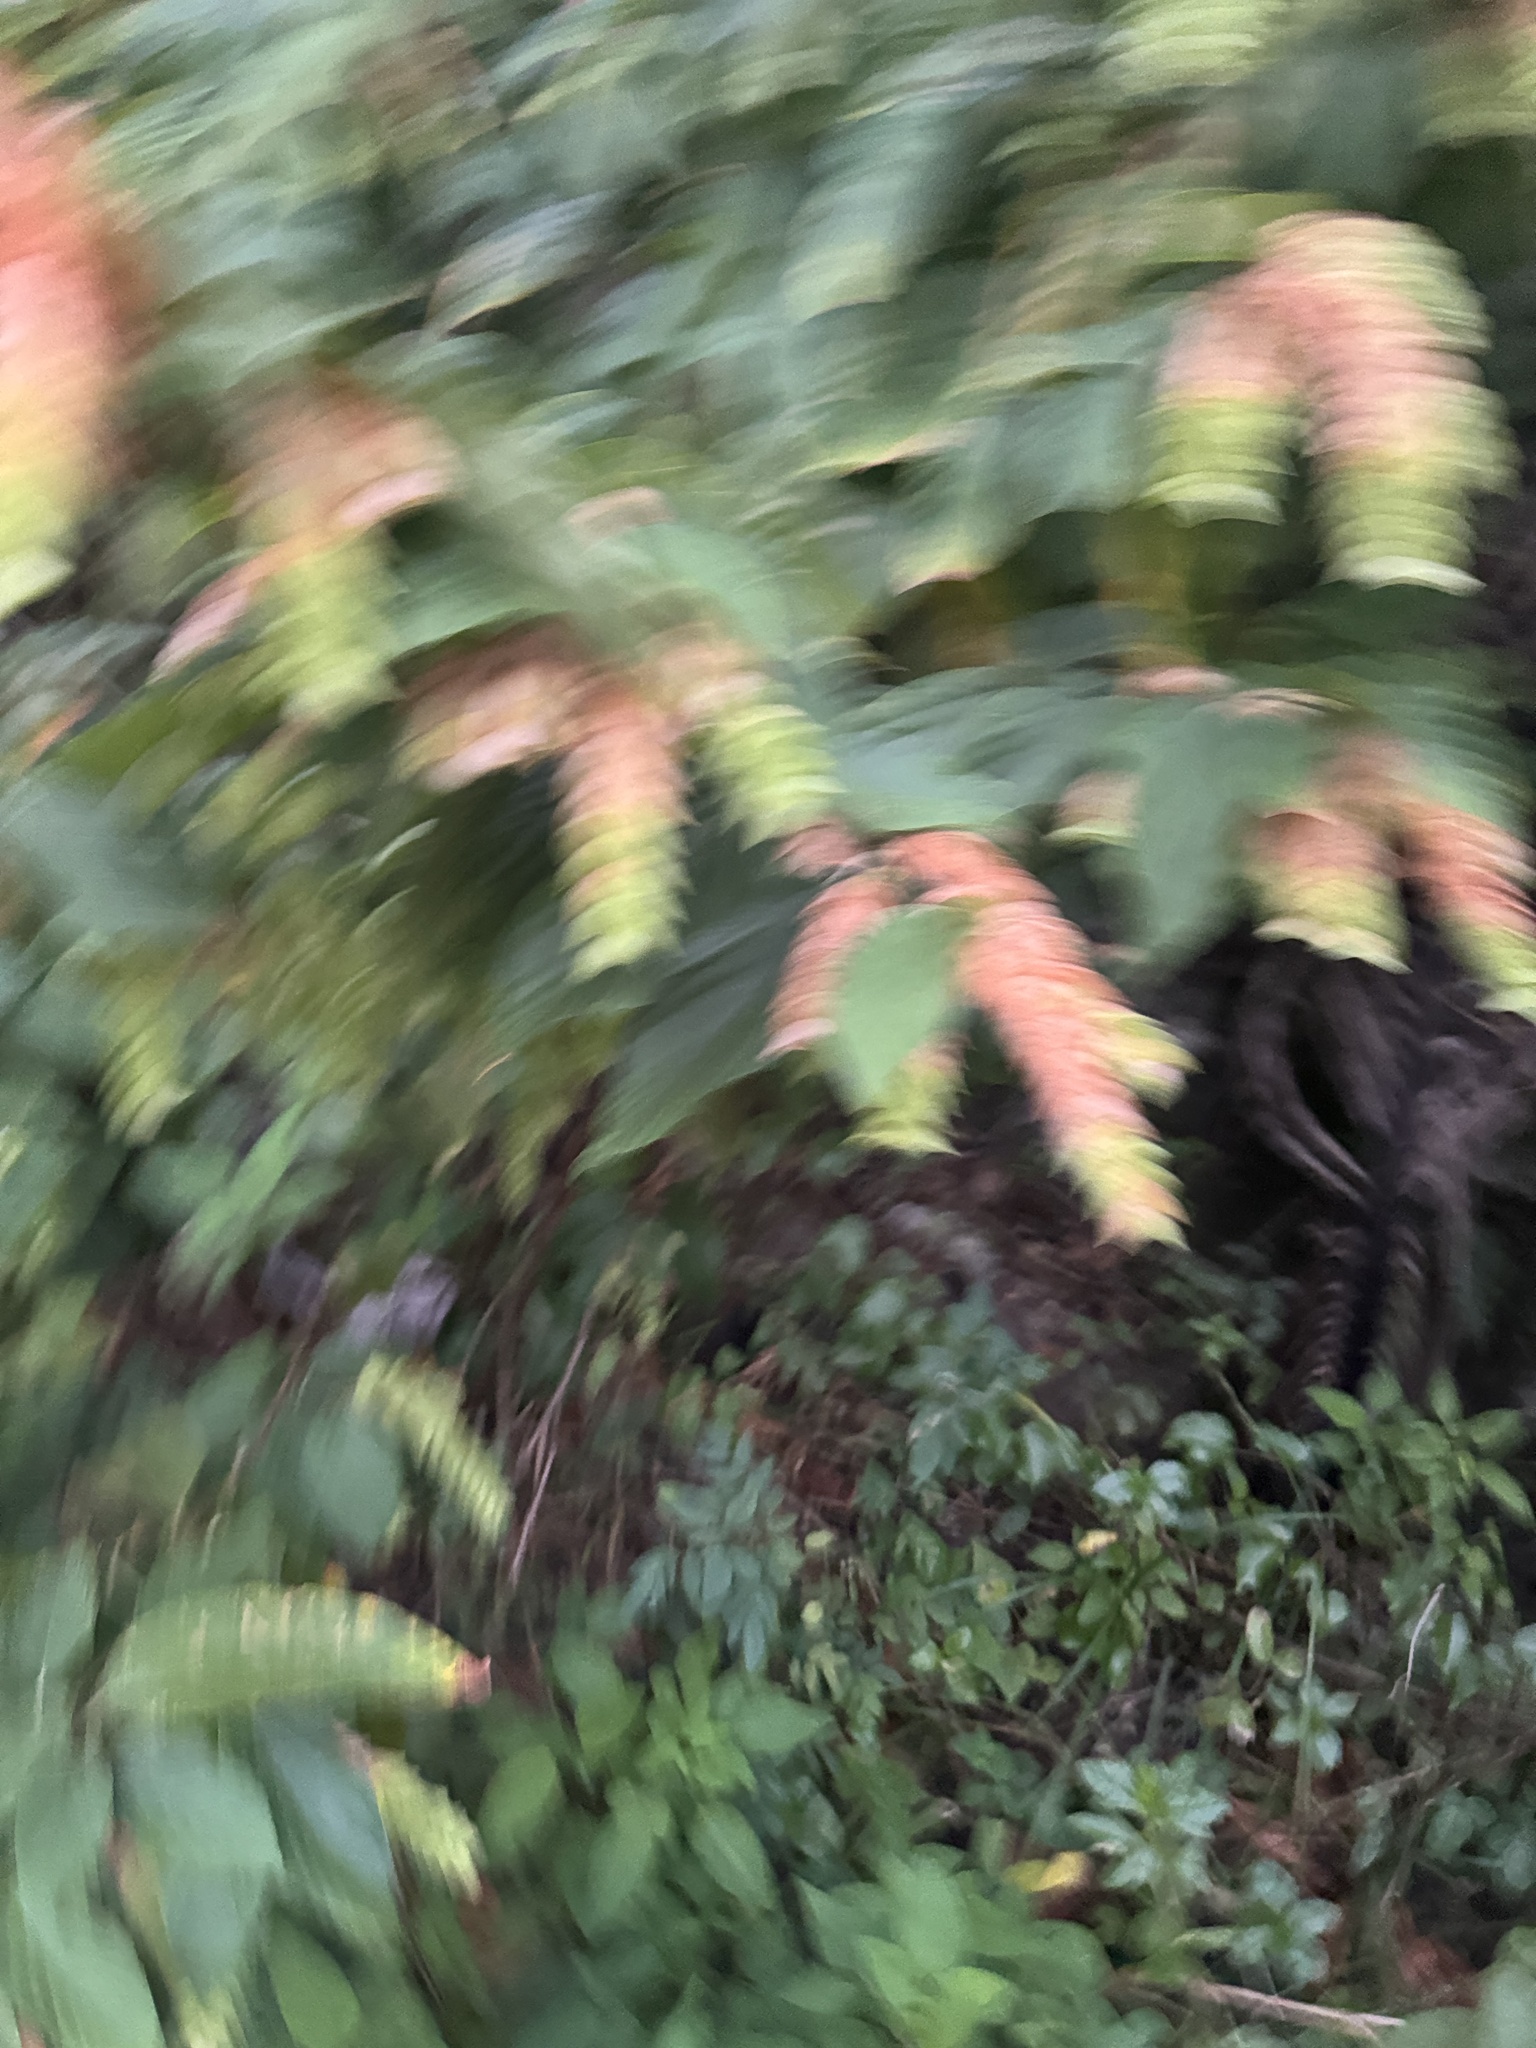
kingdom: Plantae
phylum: Tracheophyta
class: Magnoliopsida
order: Fabales
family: Fabaceae
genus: Flemingia
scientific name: Flemingia strobilifera
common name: Wild hops
